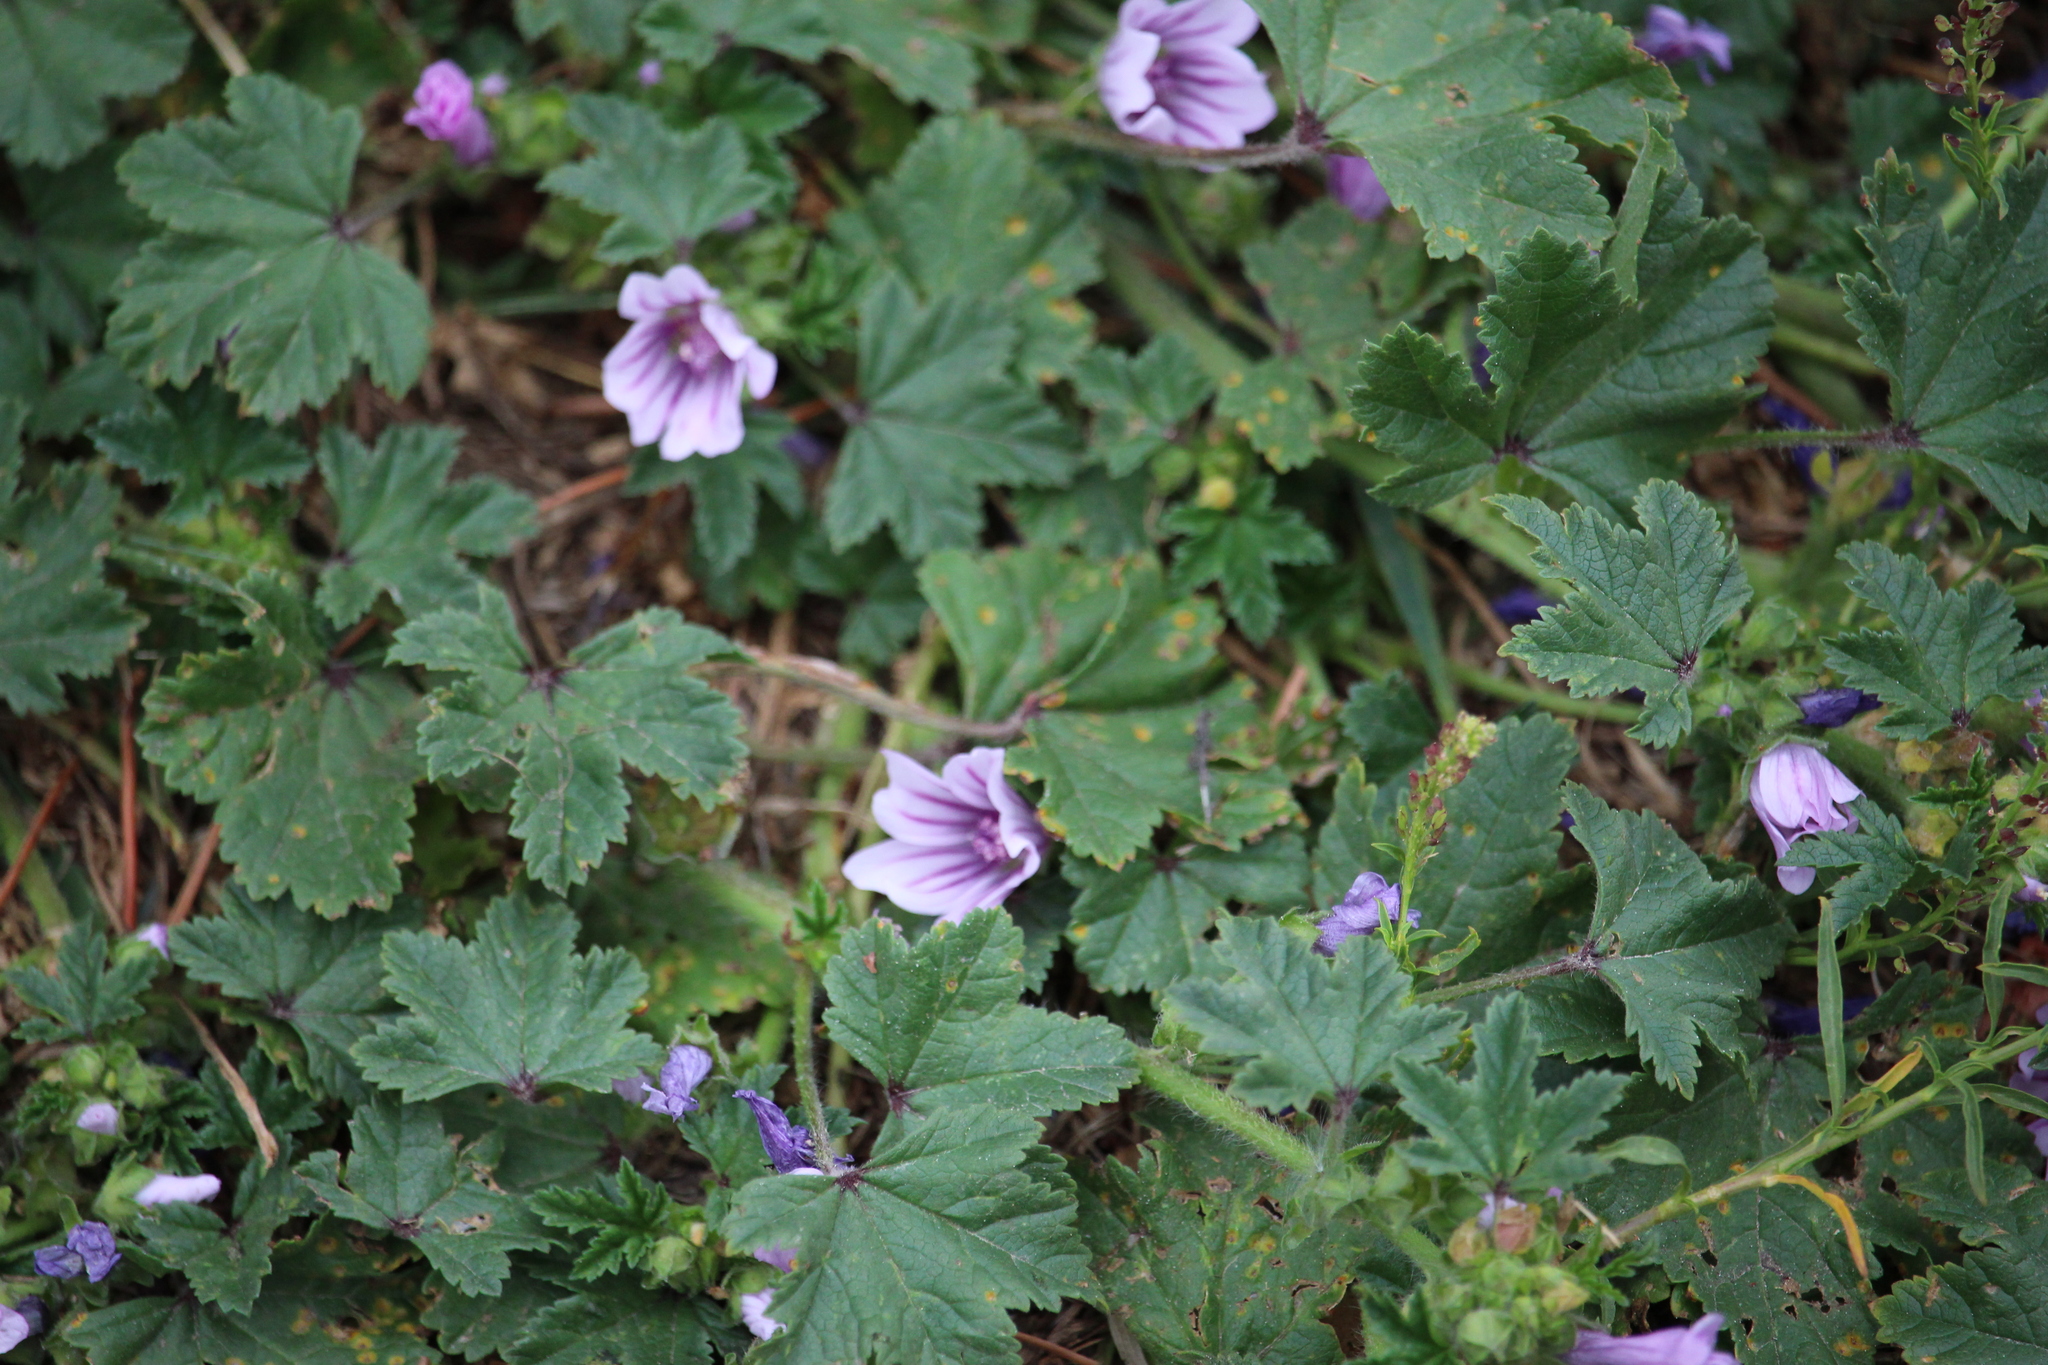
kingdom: Plantae
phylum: Tracheophyta
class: Magnoliopsida
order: Malvales
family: Malvaceae
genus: Malva
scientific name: Malva sylvestris
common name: Common mallow
